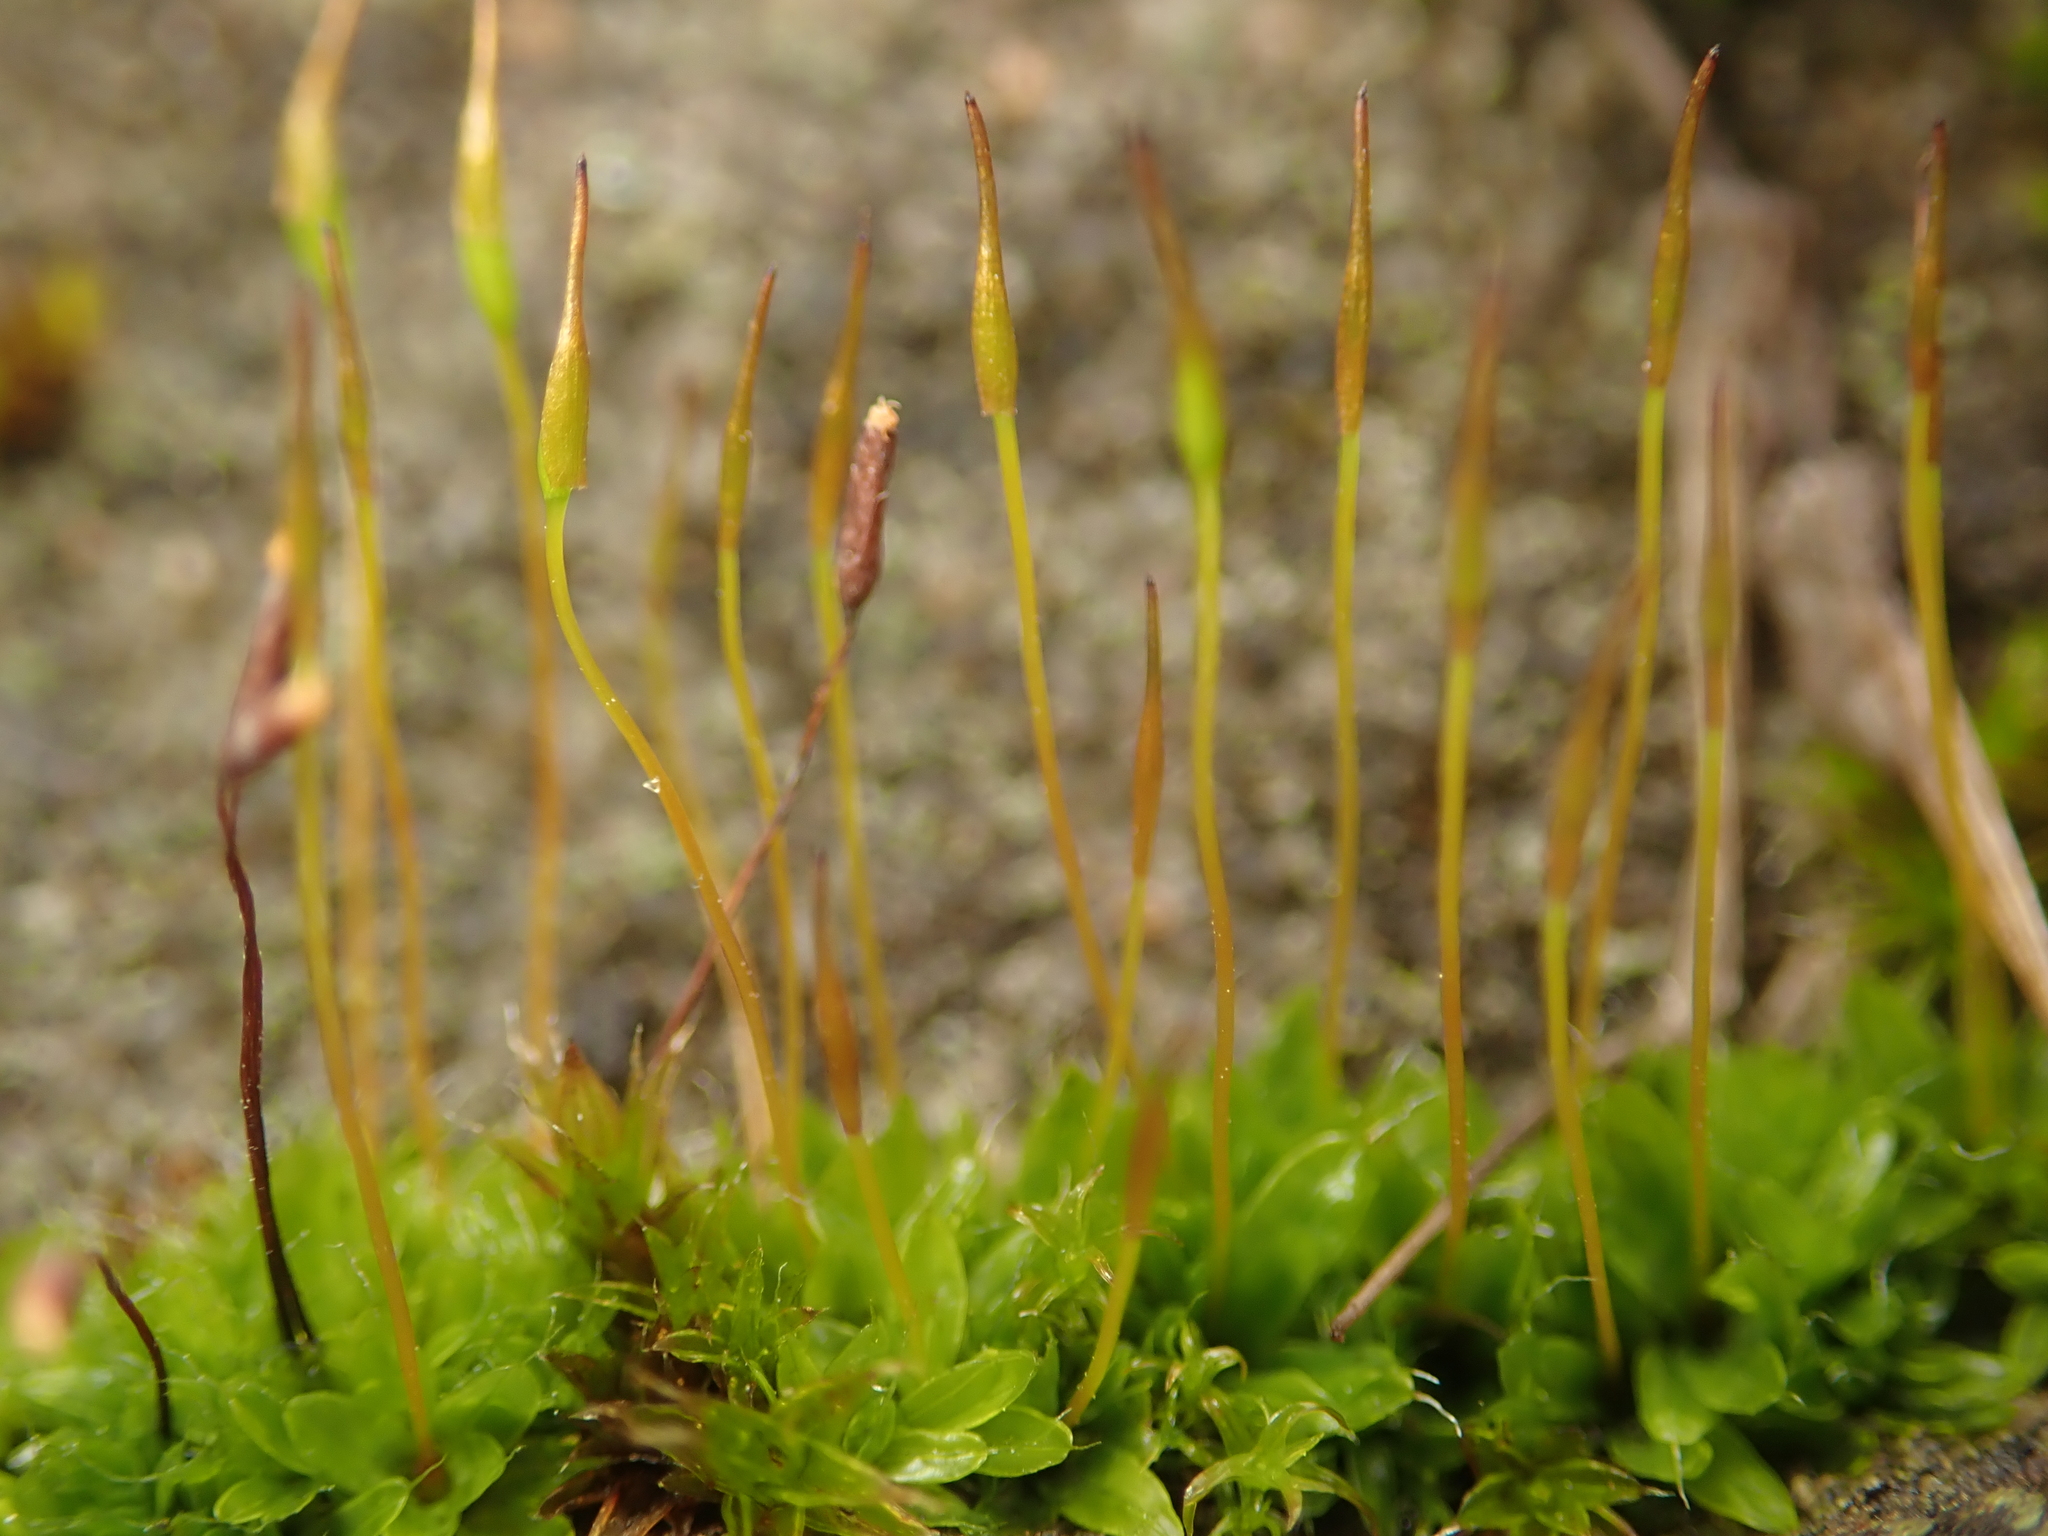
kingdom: Plantae
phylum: Bryophyta
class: Bryopsida
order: Pottiales
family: Pottiaceae
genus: Tortula
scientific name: Tortula muralis
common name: Wall screw-moss
